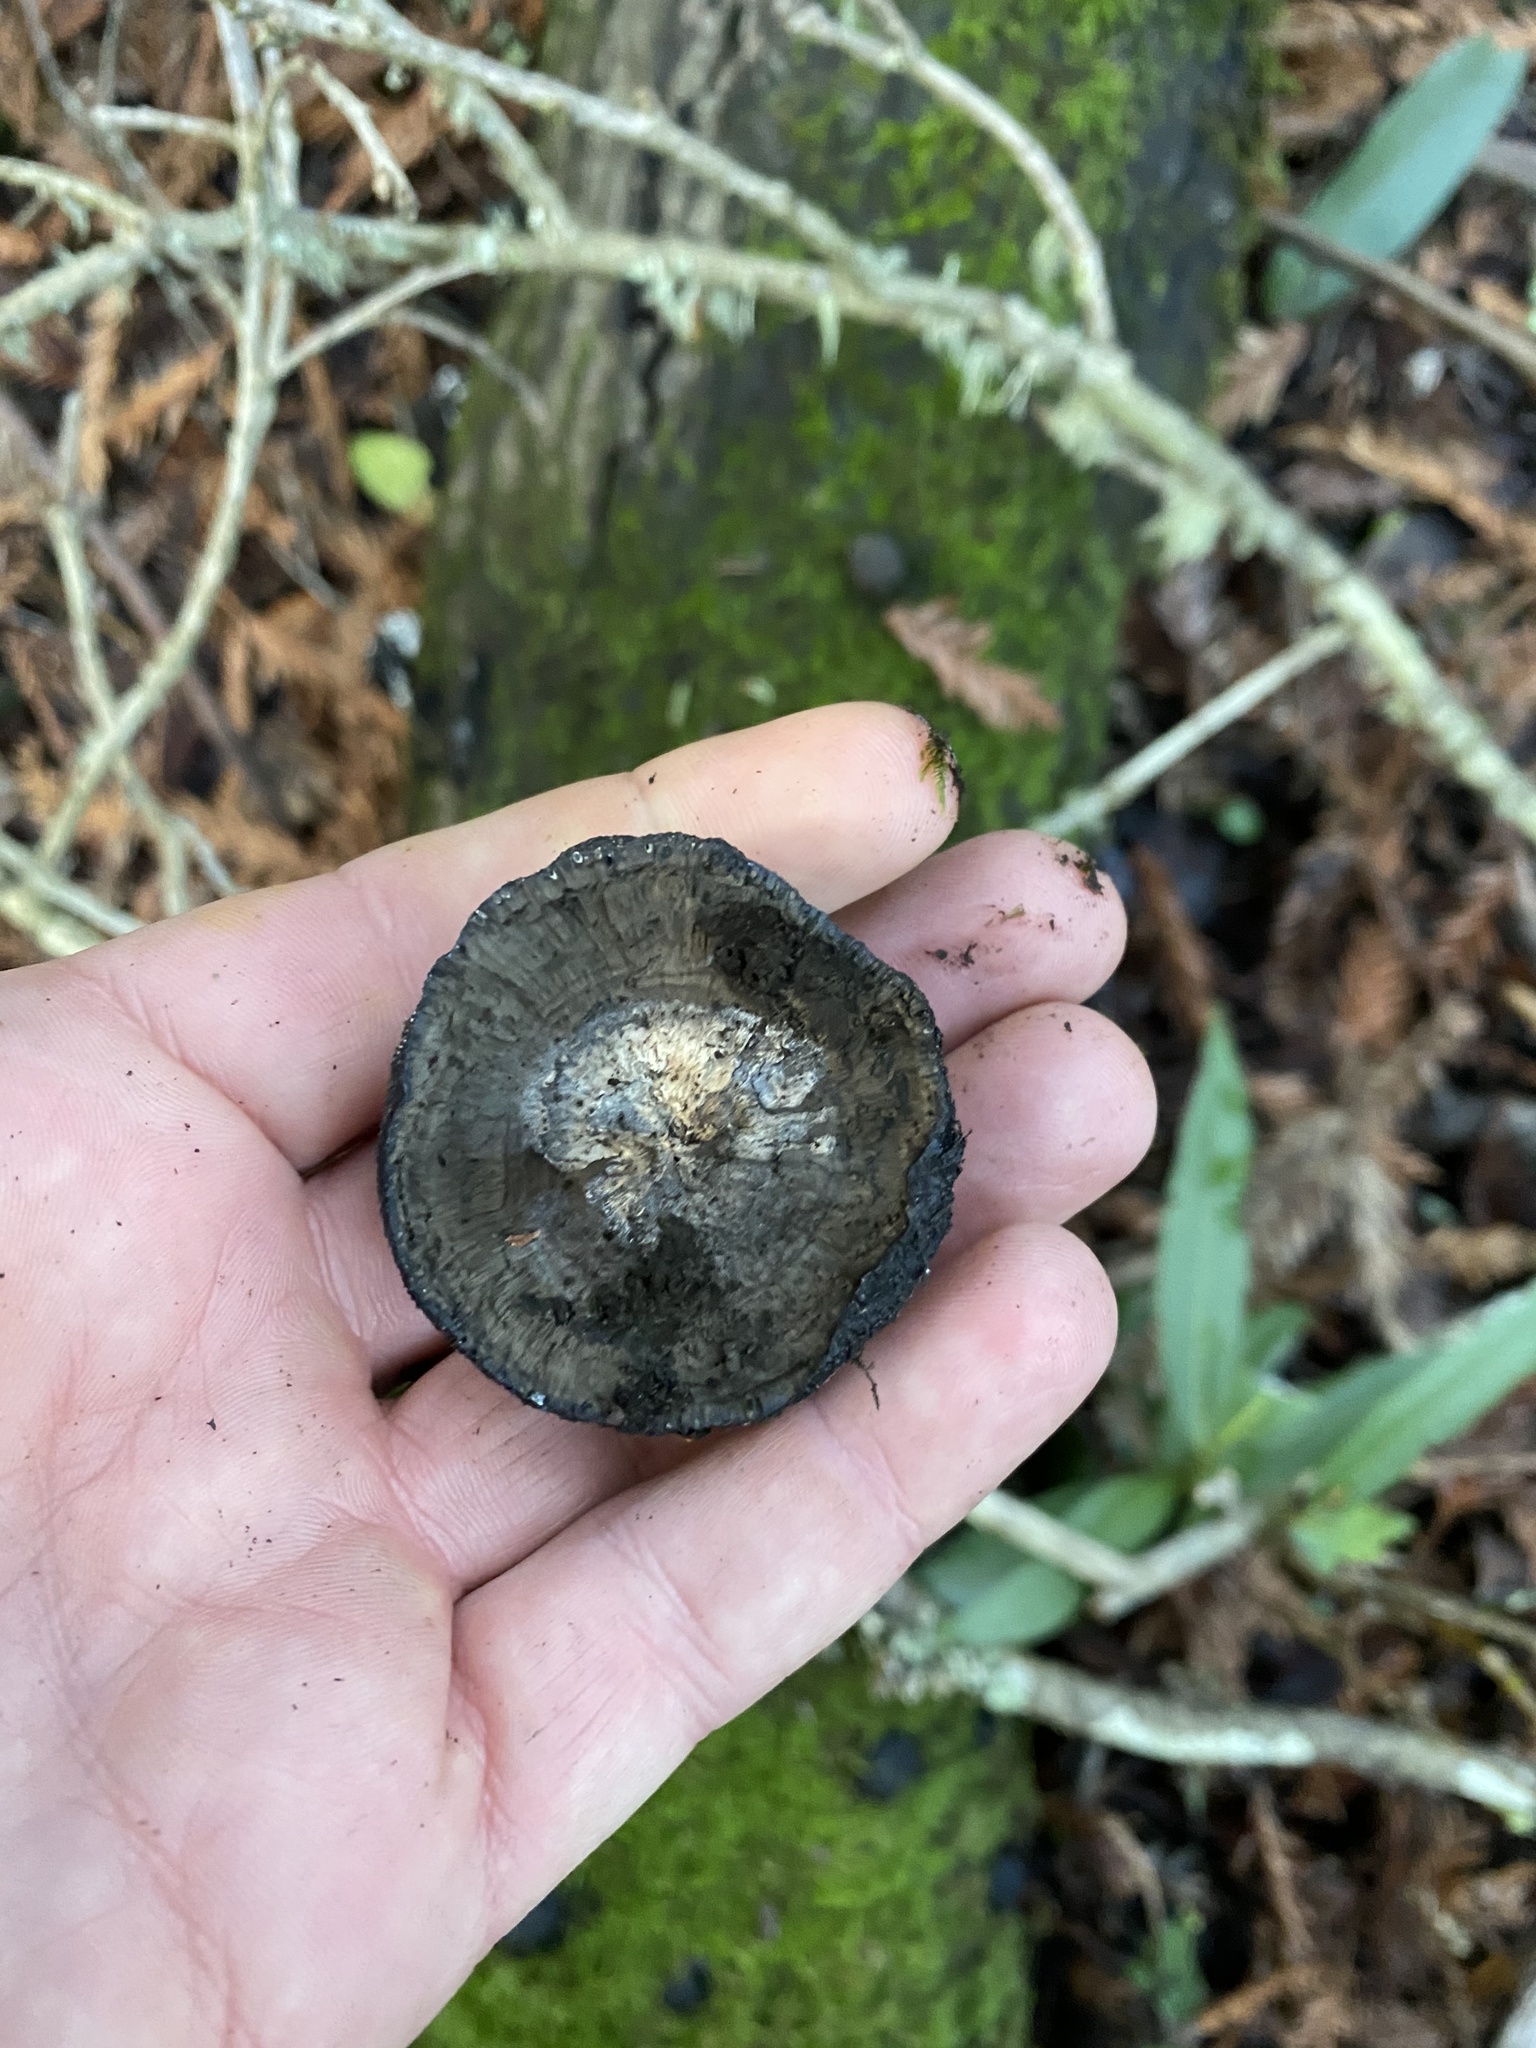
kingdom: Fungi
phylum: Ascomycota
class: Sordariomycetes
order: Xylariales
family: Hypoxylaceae
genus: Annulohypoxylon
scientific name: Annulohypoxylon thouarsianum
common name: Cramp balls
